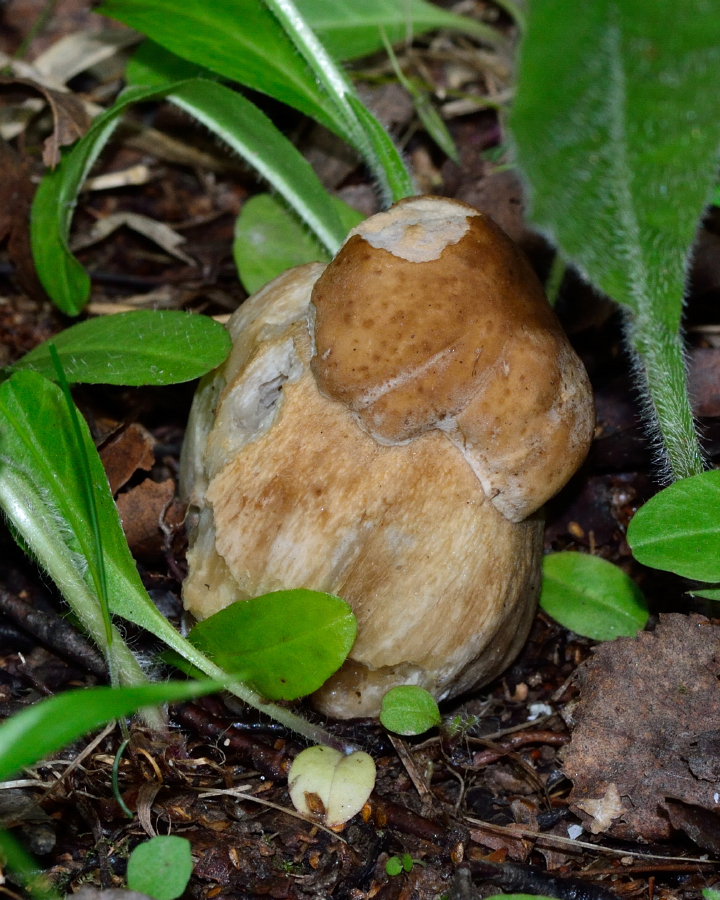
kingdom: Fungi
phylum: Basidiomycota
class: Agaricomycetes
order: Boletales
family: Boletaceae
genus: Boletus
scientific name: Boletus edulis
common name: Cep
